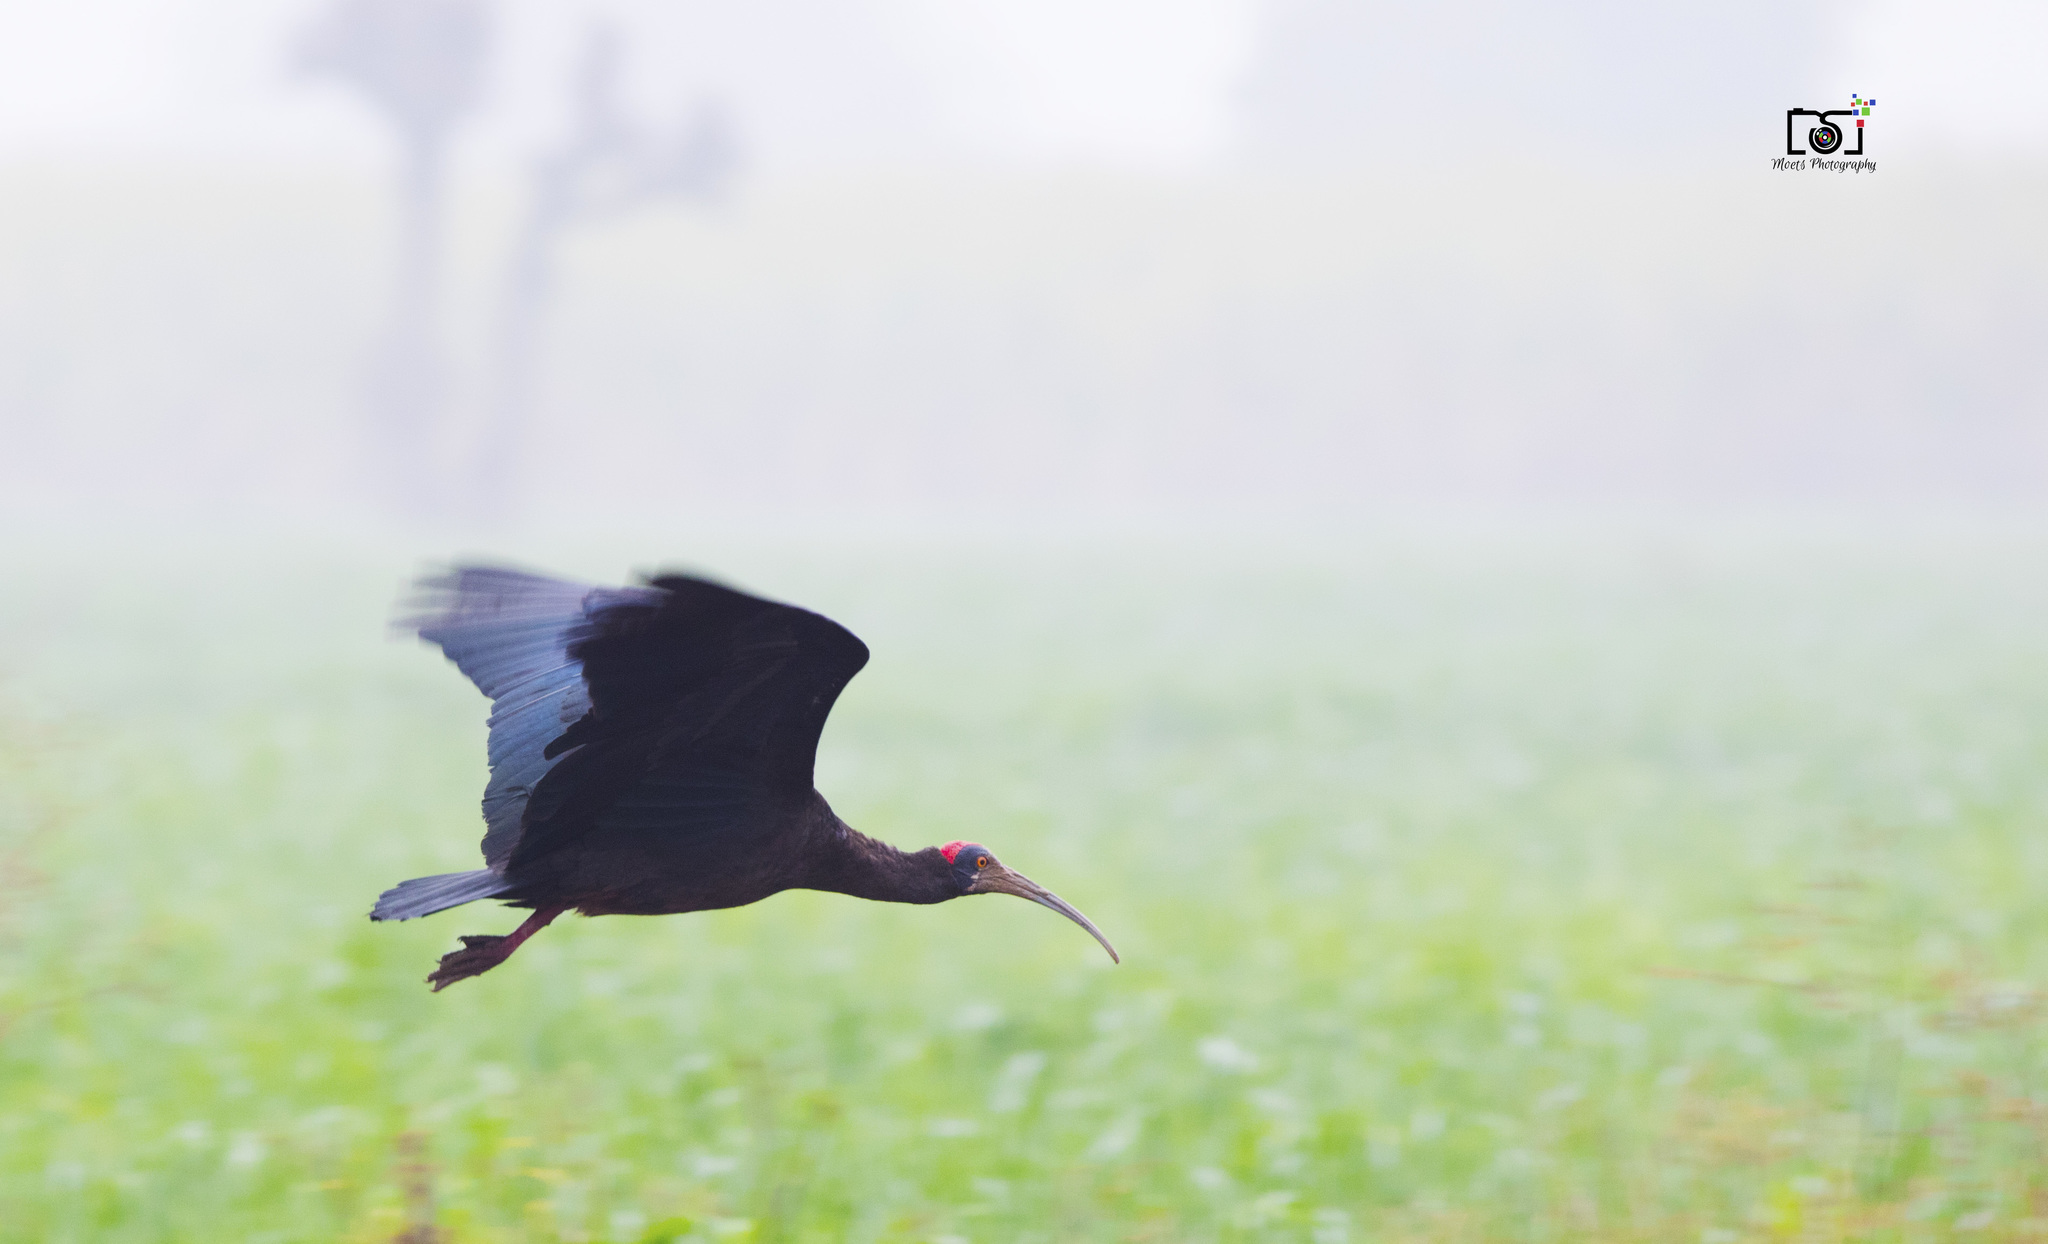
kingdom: Animalia
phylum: Chordata
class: Aves
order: Pelecaniformes
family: Threskiornithidae
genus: Pseudibis
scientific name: Pseudibis papillosa
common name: Red-naped ibis
